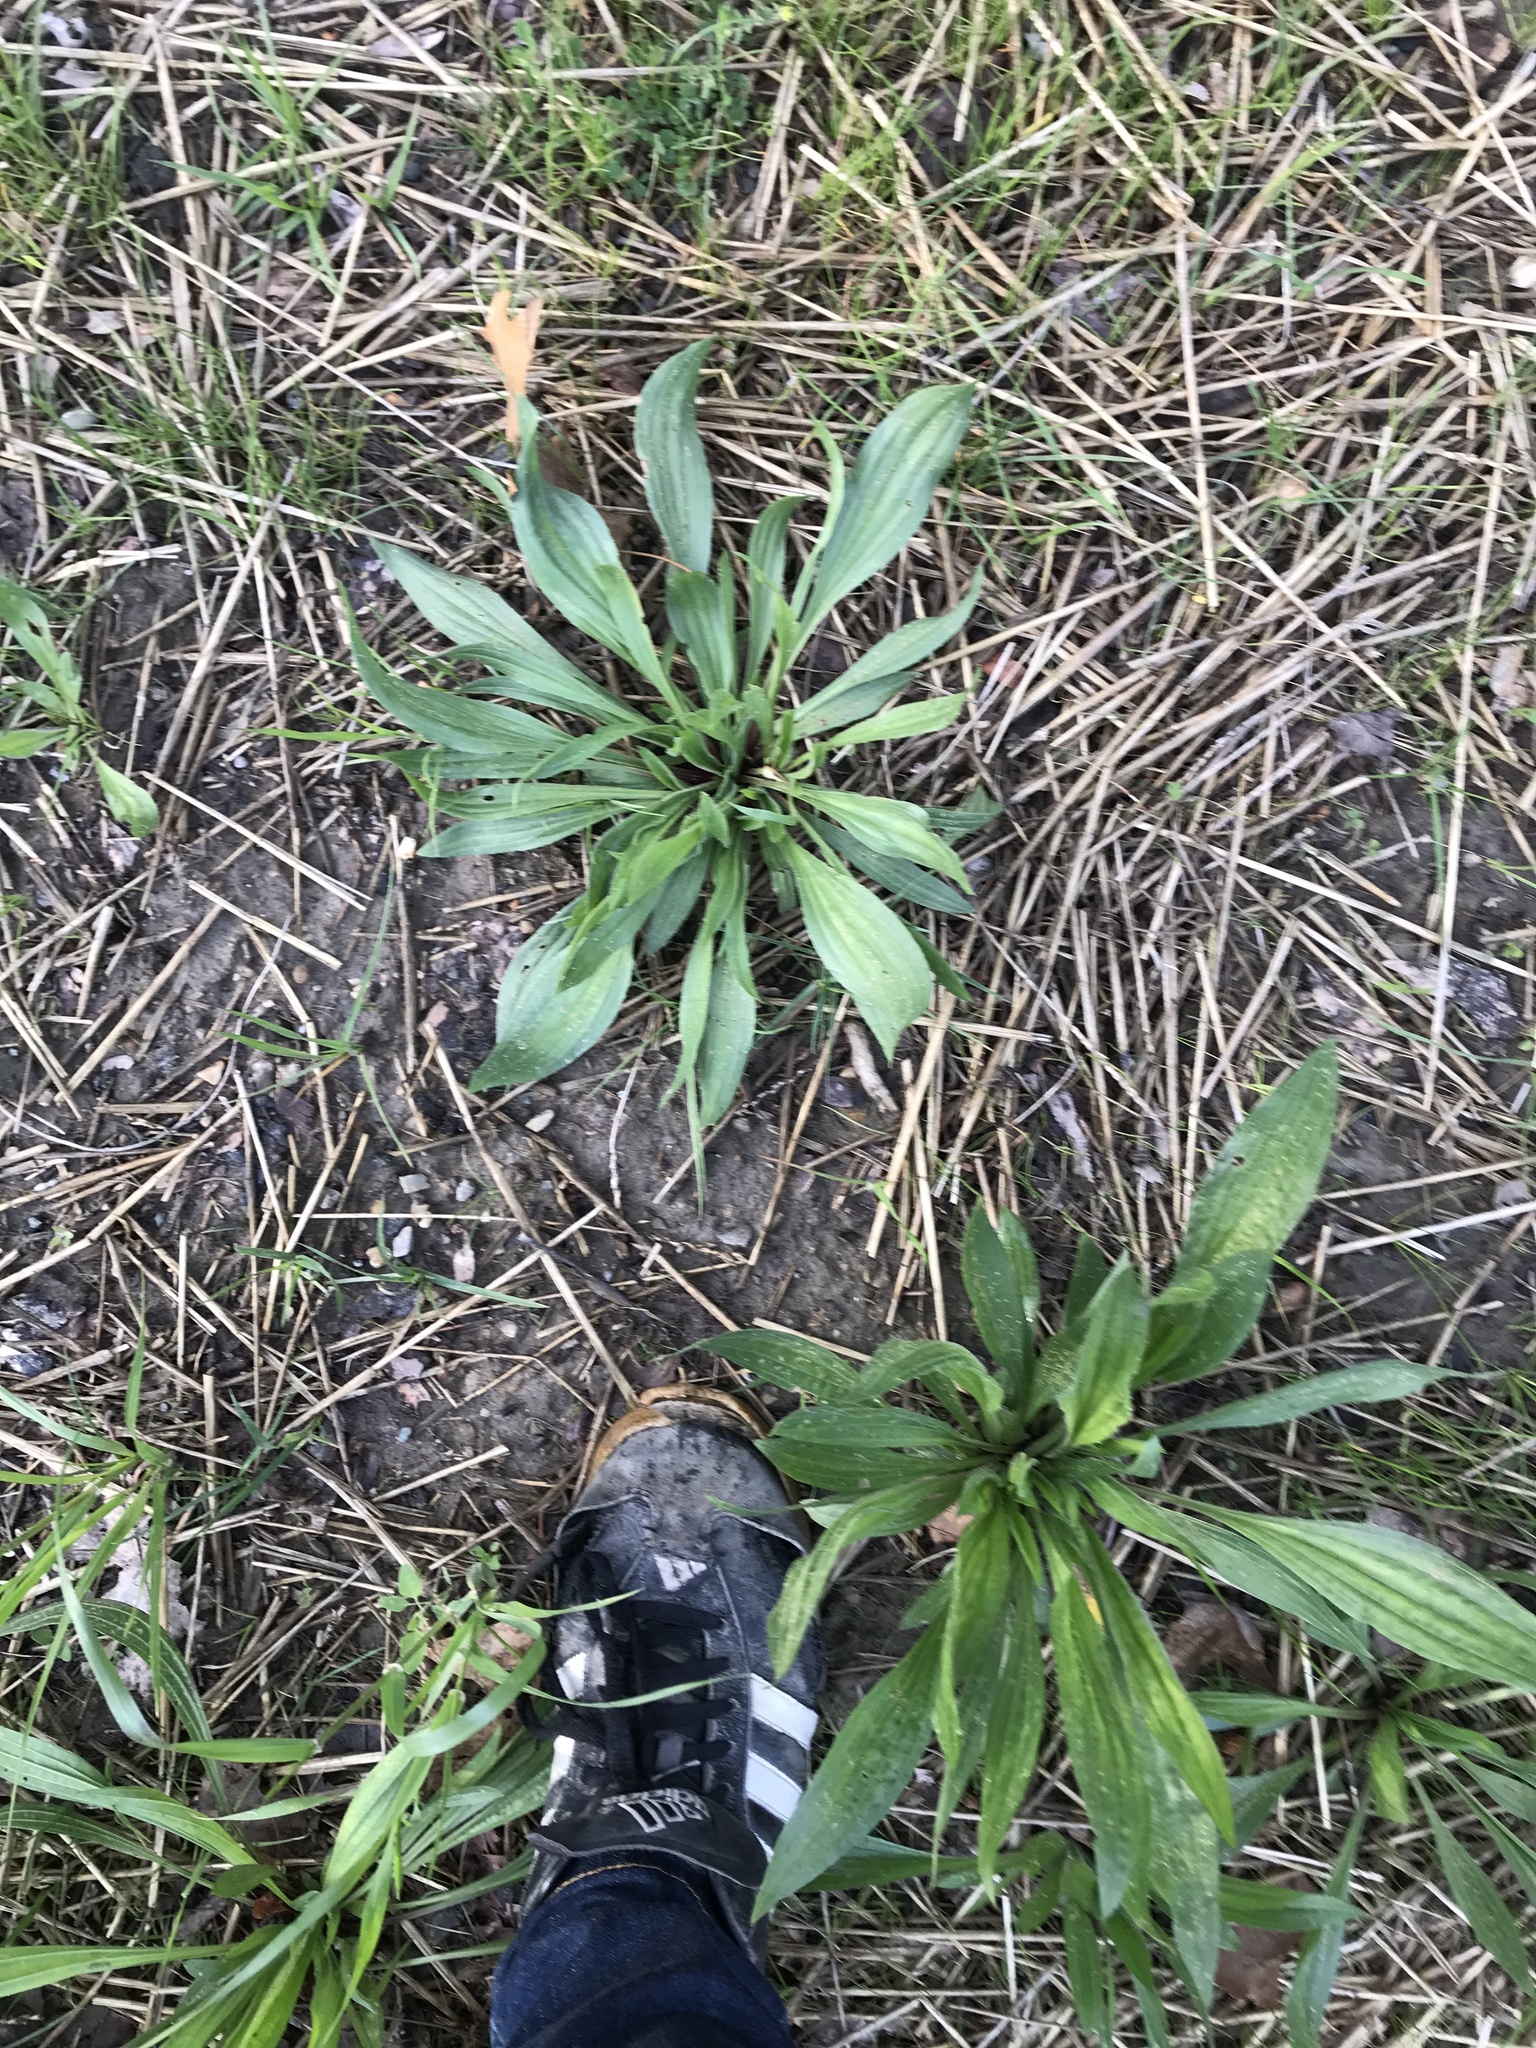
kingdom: Plantae
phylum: Tracheophyta
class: Magnoliopsida
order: Lamiales
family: Plantaginaceae
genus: Plantago
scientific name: Plantago lanceolata
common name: Ribwort plantain
